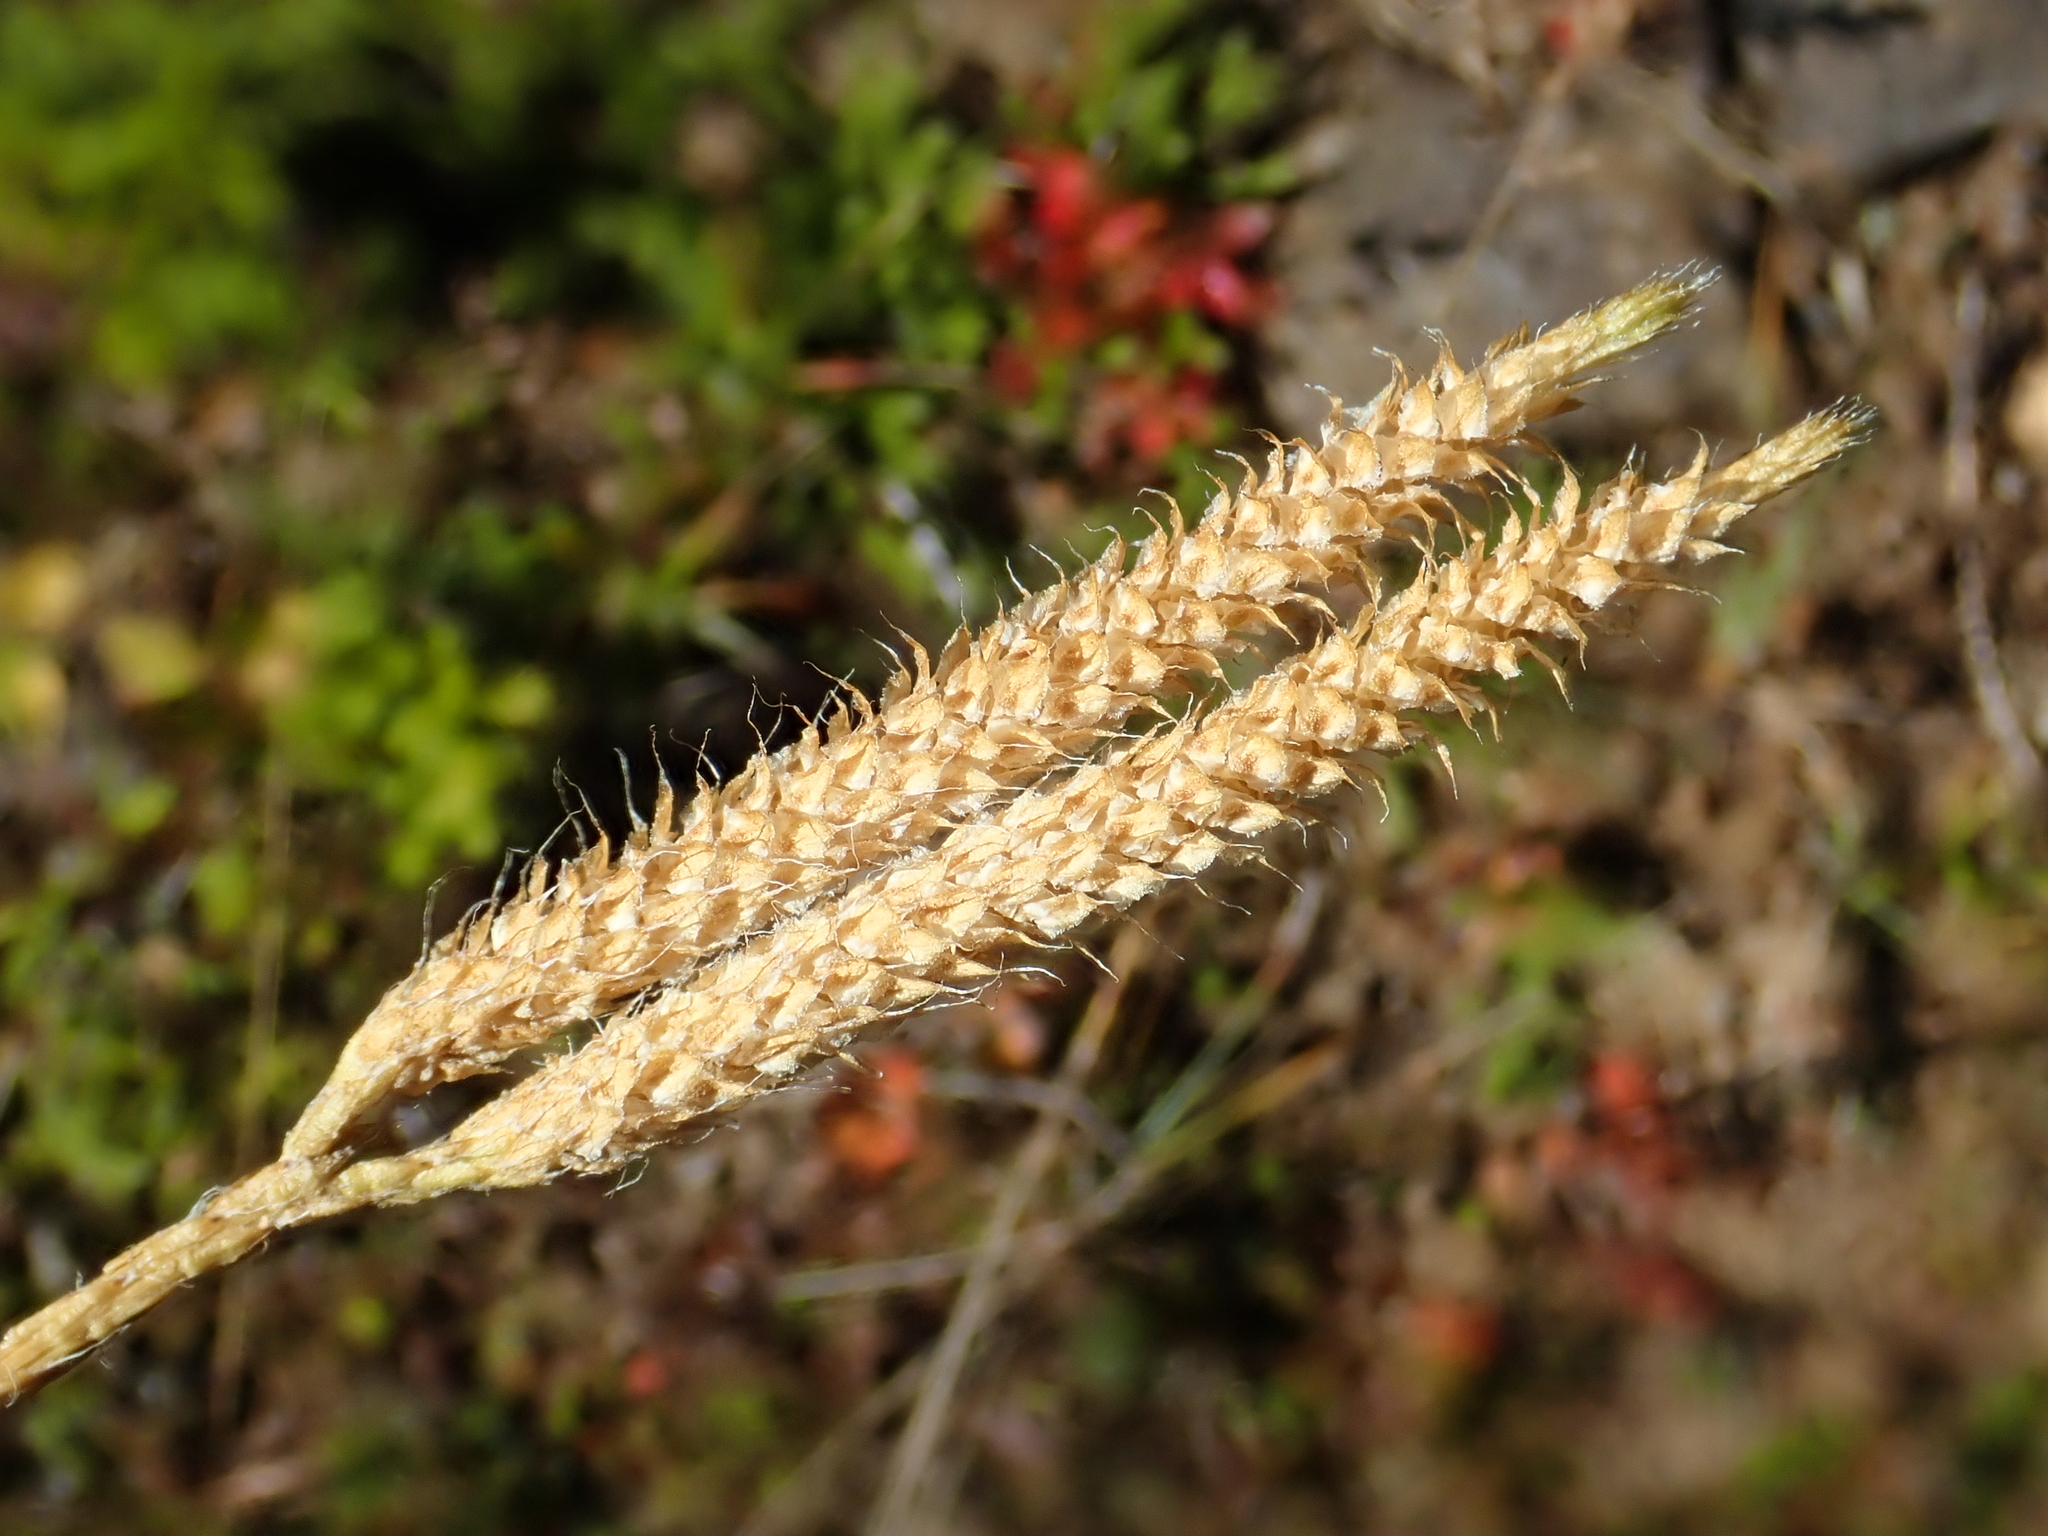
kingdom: Plantae
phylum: Tracheophyta
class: Lycopodiopsida
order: Lycopodiales
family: Lycopodiaceae
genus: Lycopodium
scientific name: Lycopodium clavatum
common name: Stag's-horn clubmoss
